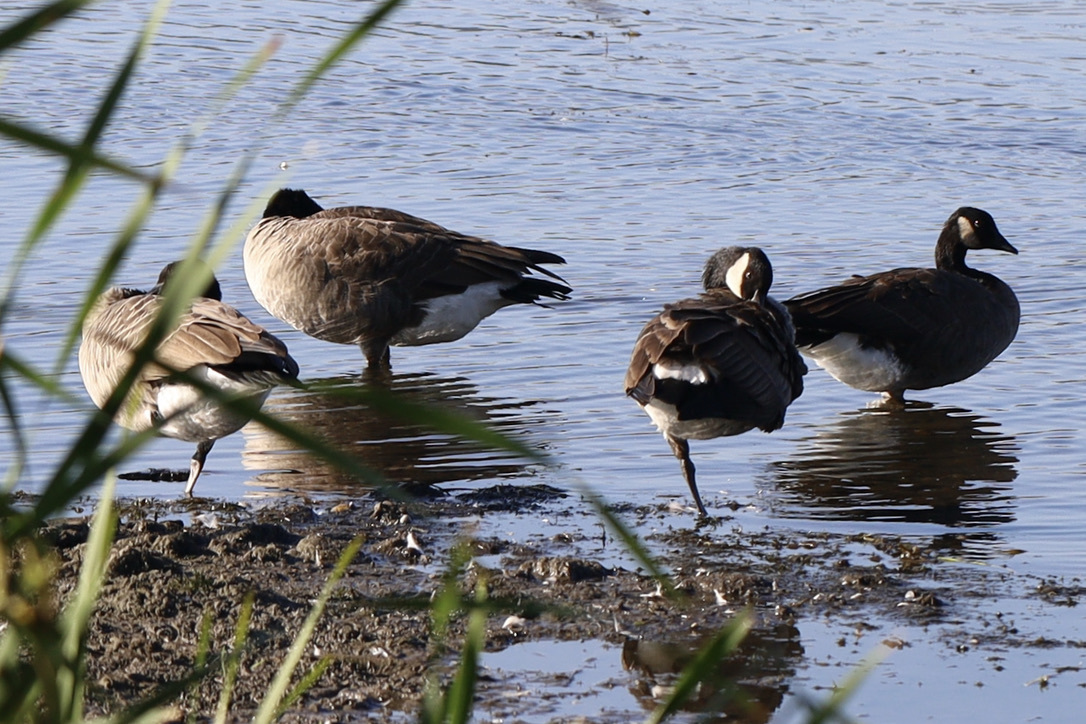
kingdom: Animalia
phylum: Chordata
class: Aves
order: Anseriformes
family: Anatidae
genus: Branta
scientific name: Branta canadensis
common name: Canada goose
